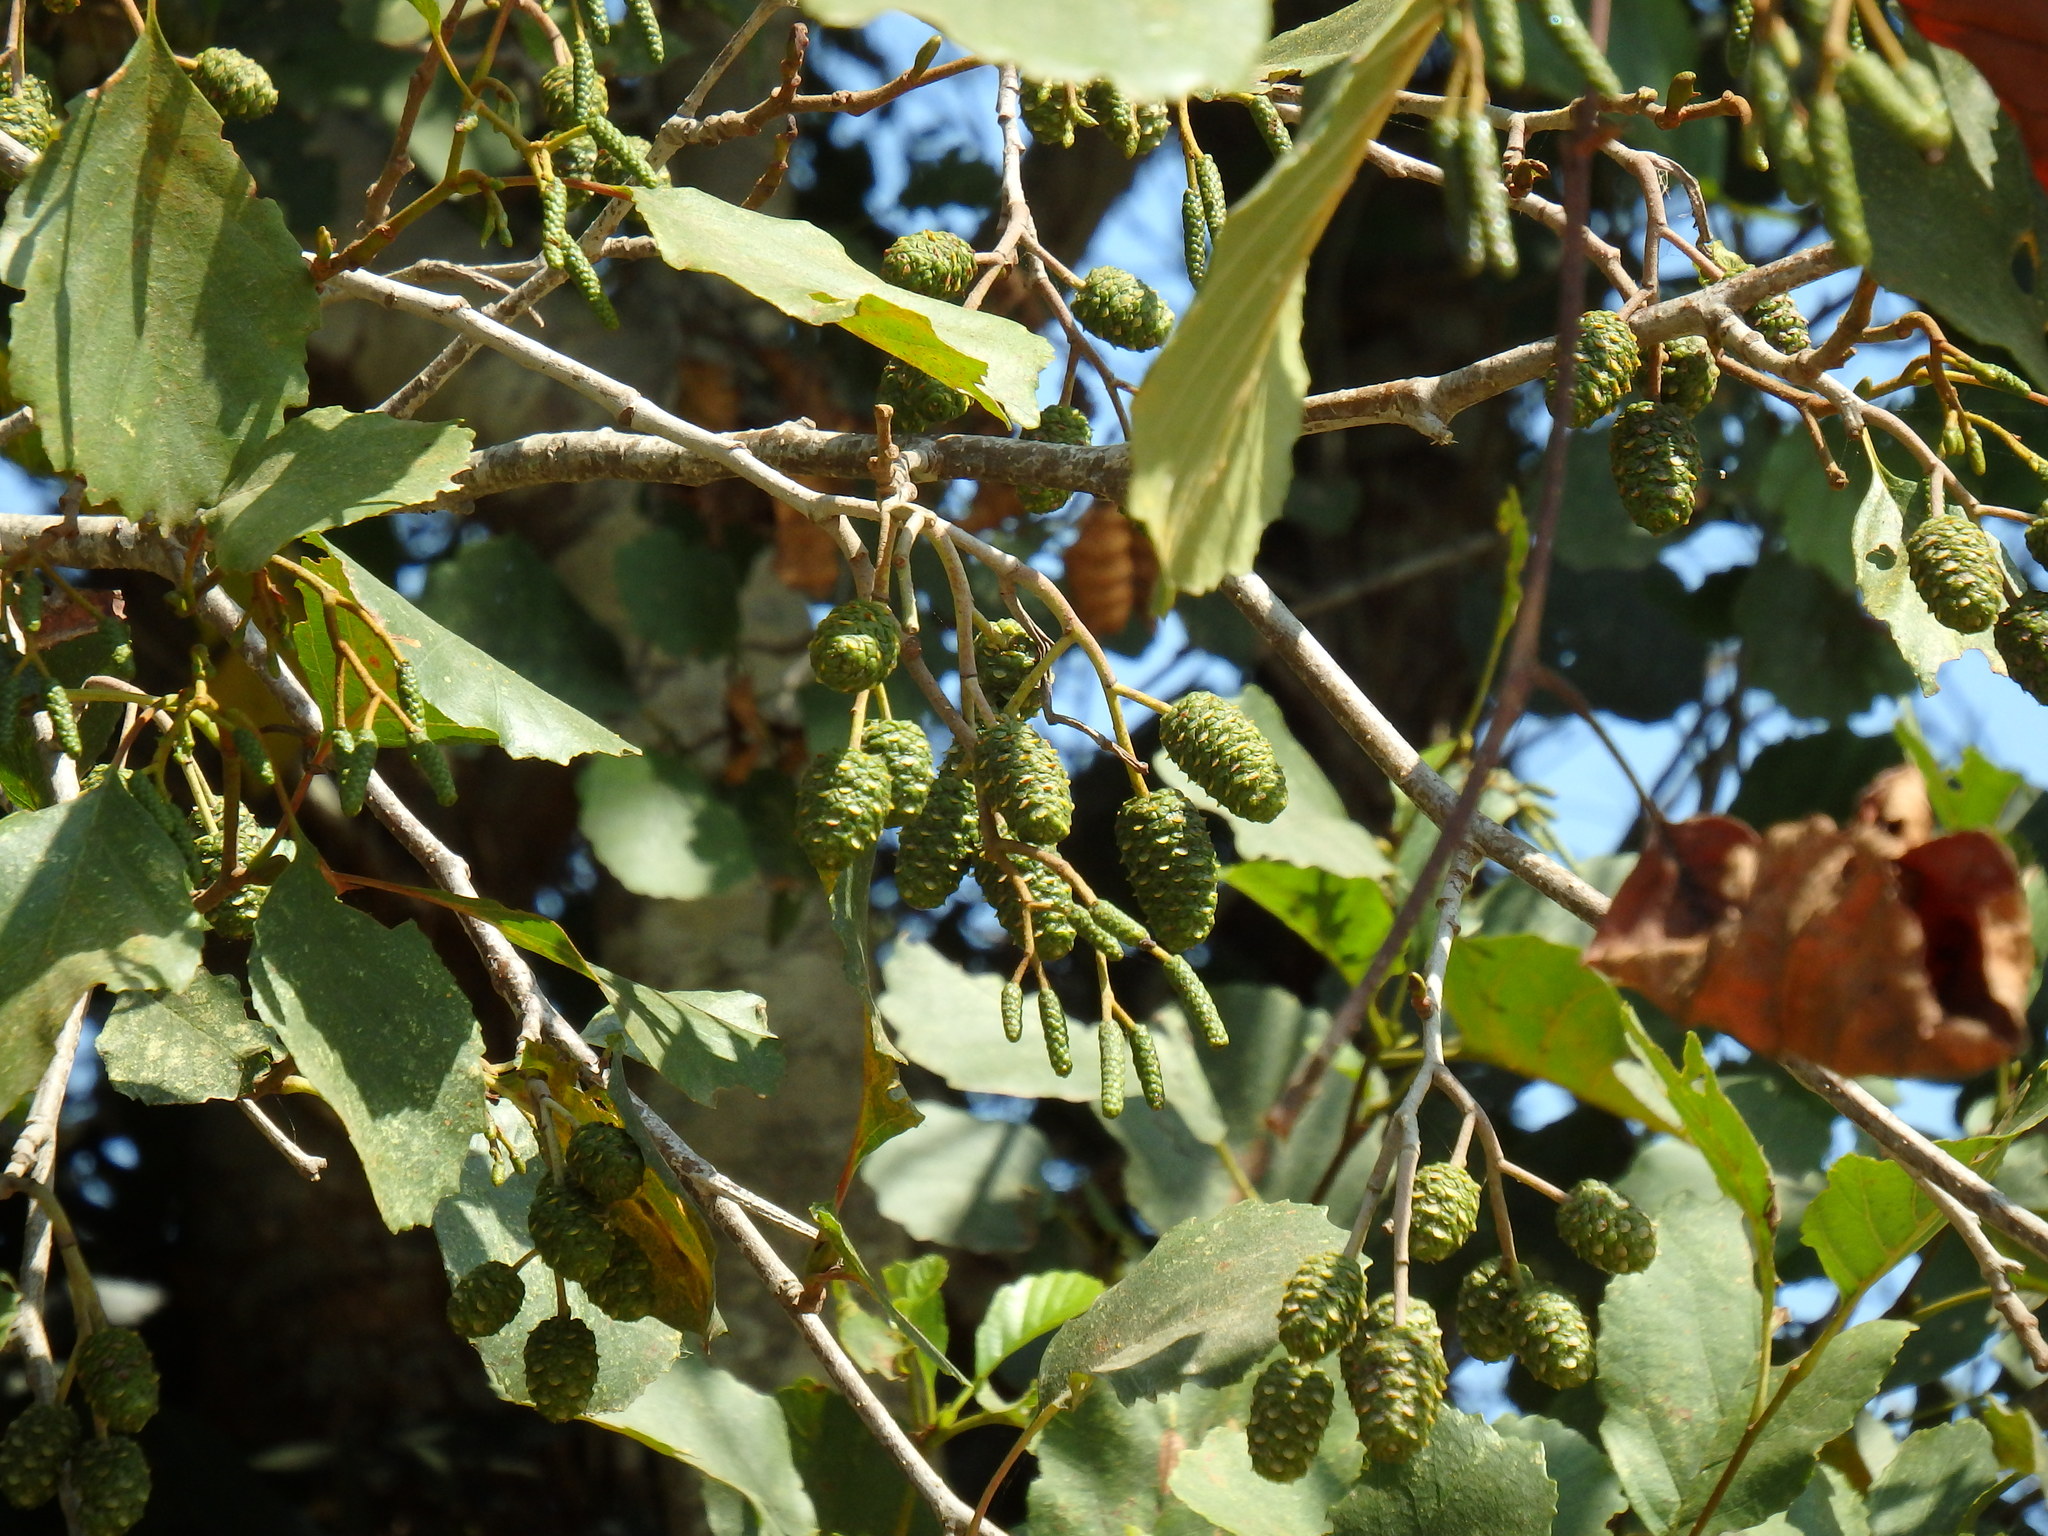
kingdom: Plantae
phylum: Tracheophyta
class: Magnoliopsida
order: Fagales
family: Betulaceae
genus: Alnus
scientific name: Alnus lusitanica
